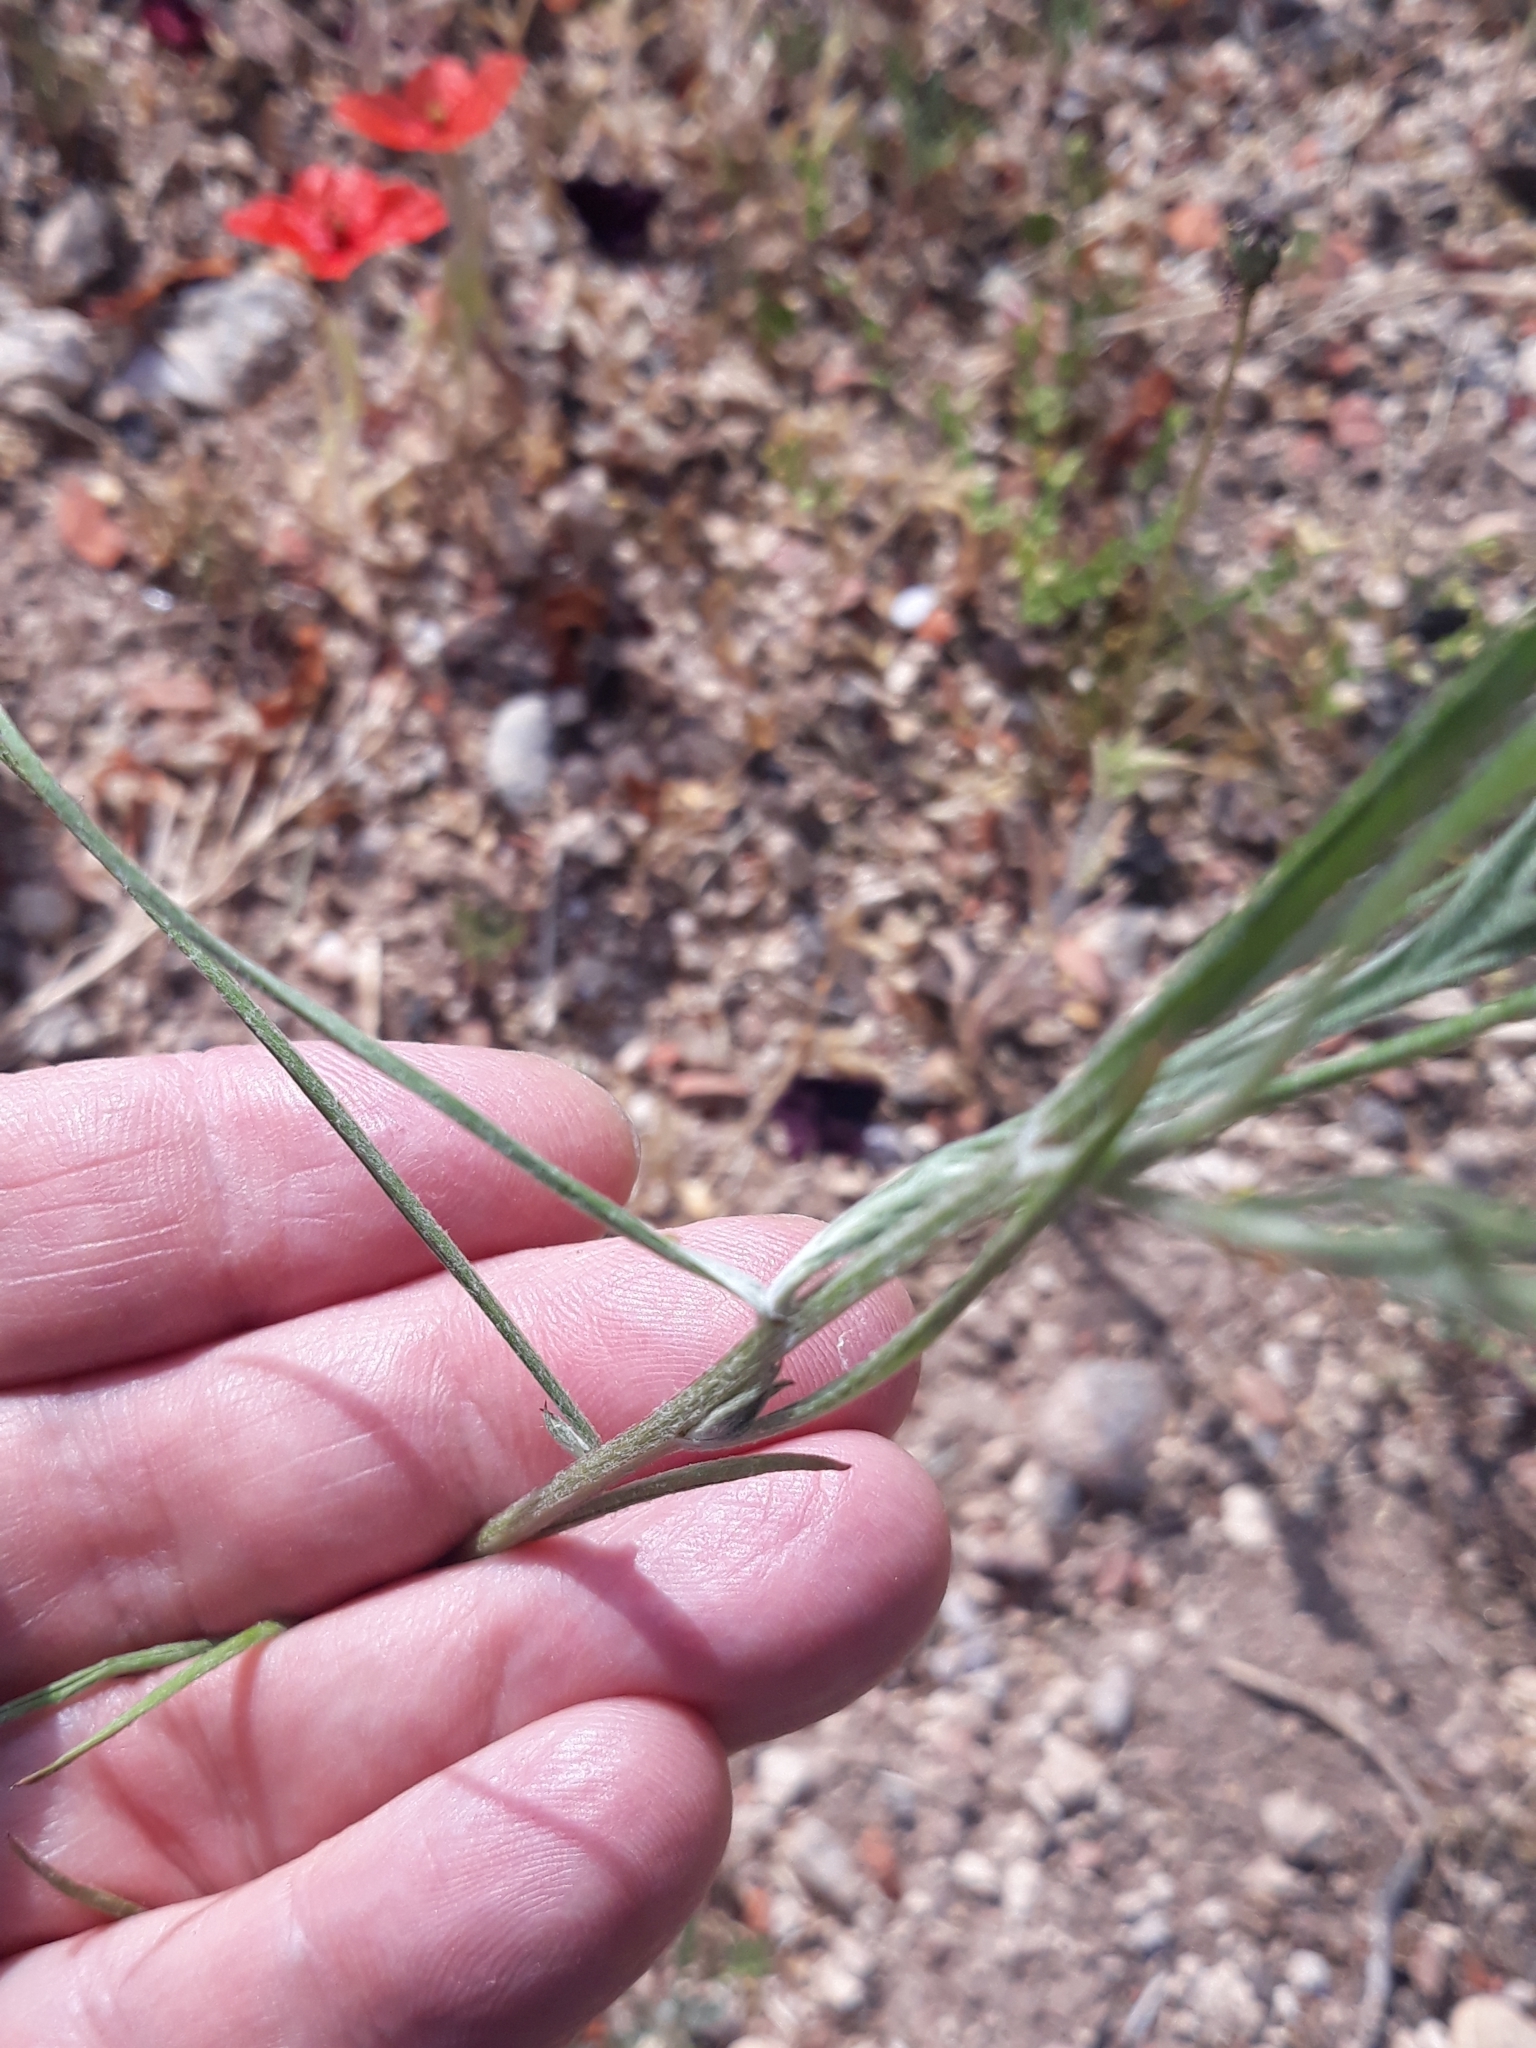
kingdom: Plantae
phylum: Tracheophyta
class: Magnoliopsida
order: Asterales
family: Asteraceae
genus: Centaurea
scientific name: Centaurea cyanus
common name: Cornflower
